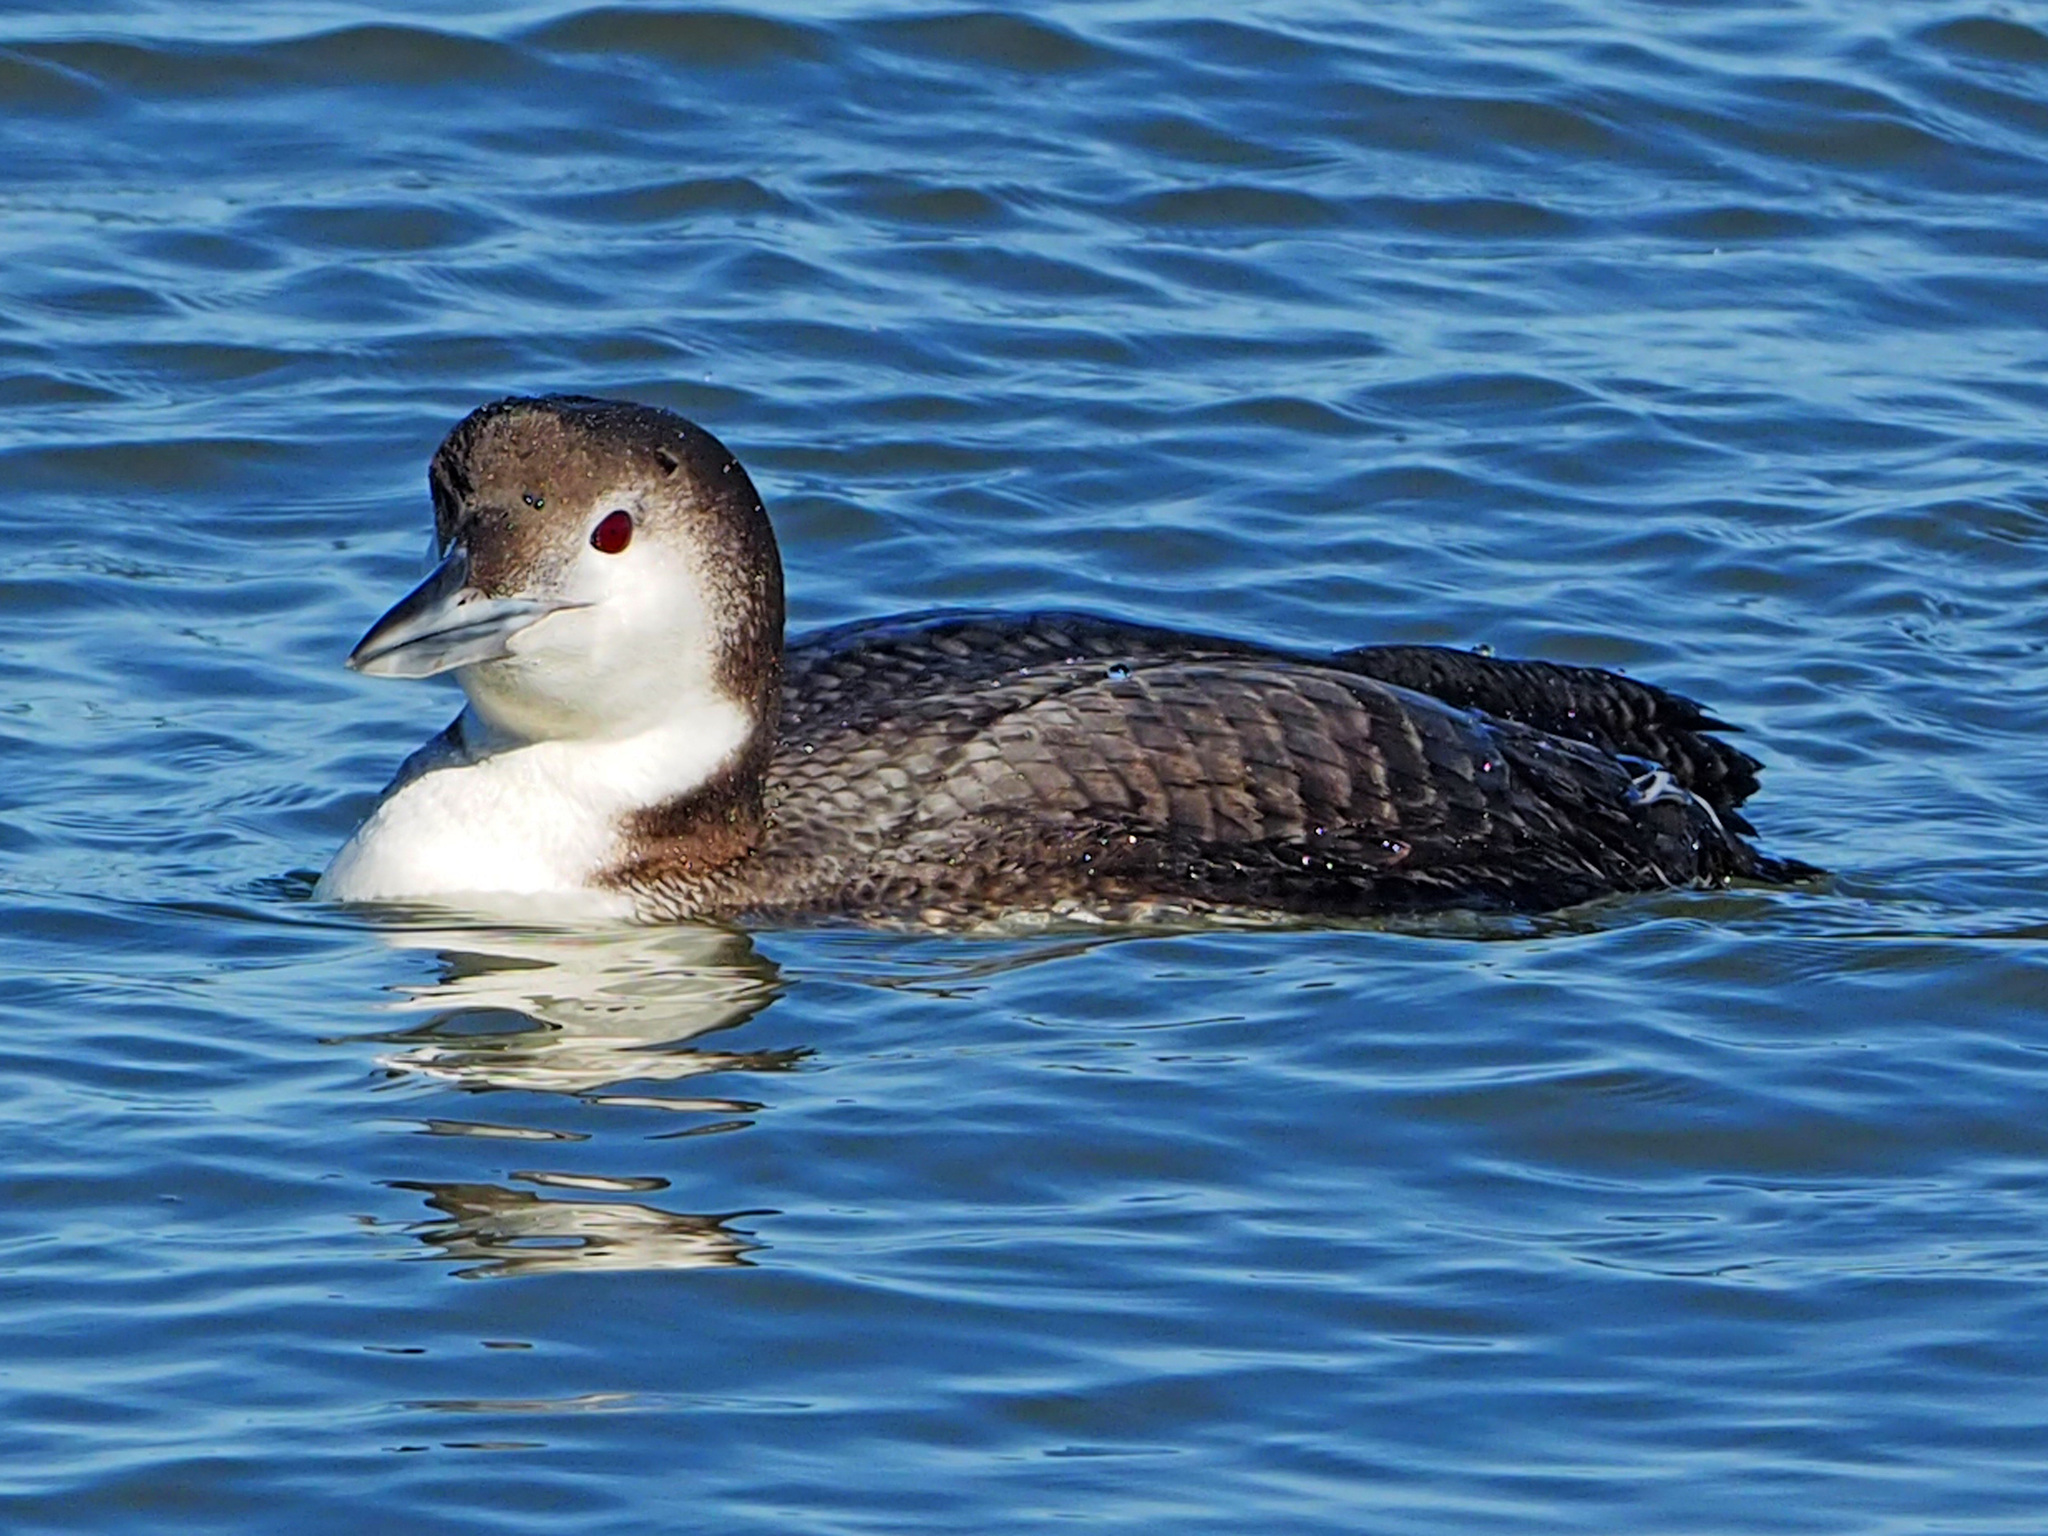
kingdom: Animalia
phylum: Chordata
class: Aves
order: Gaviiformes
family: Gaviidae
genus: Gavia
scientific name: Gavia immer
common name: Common loon
